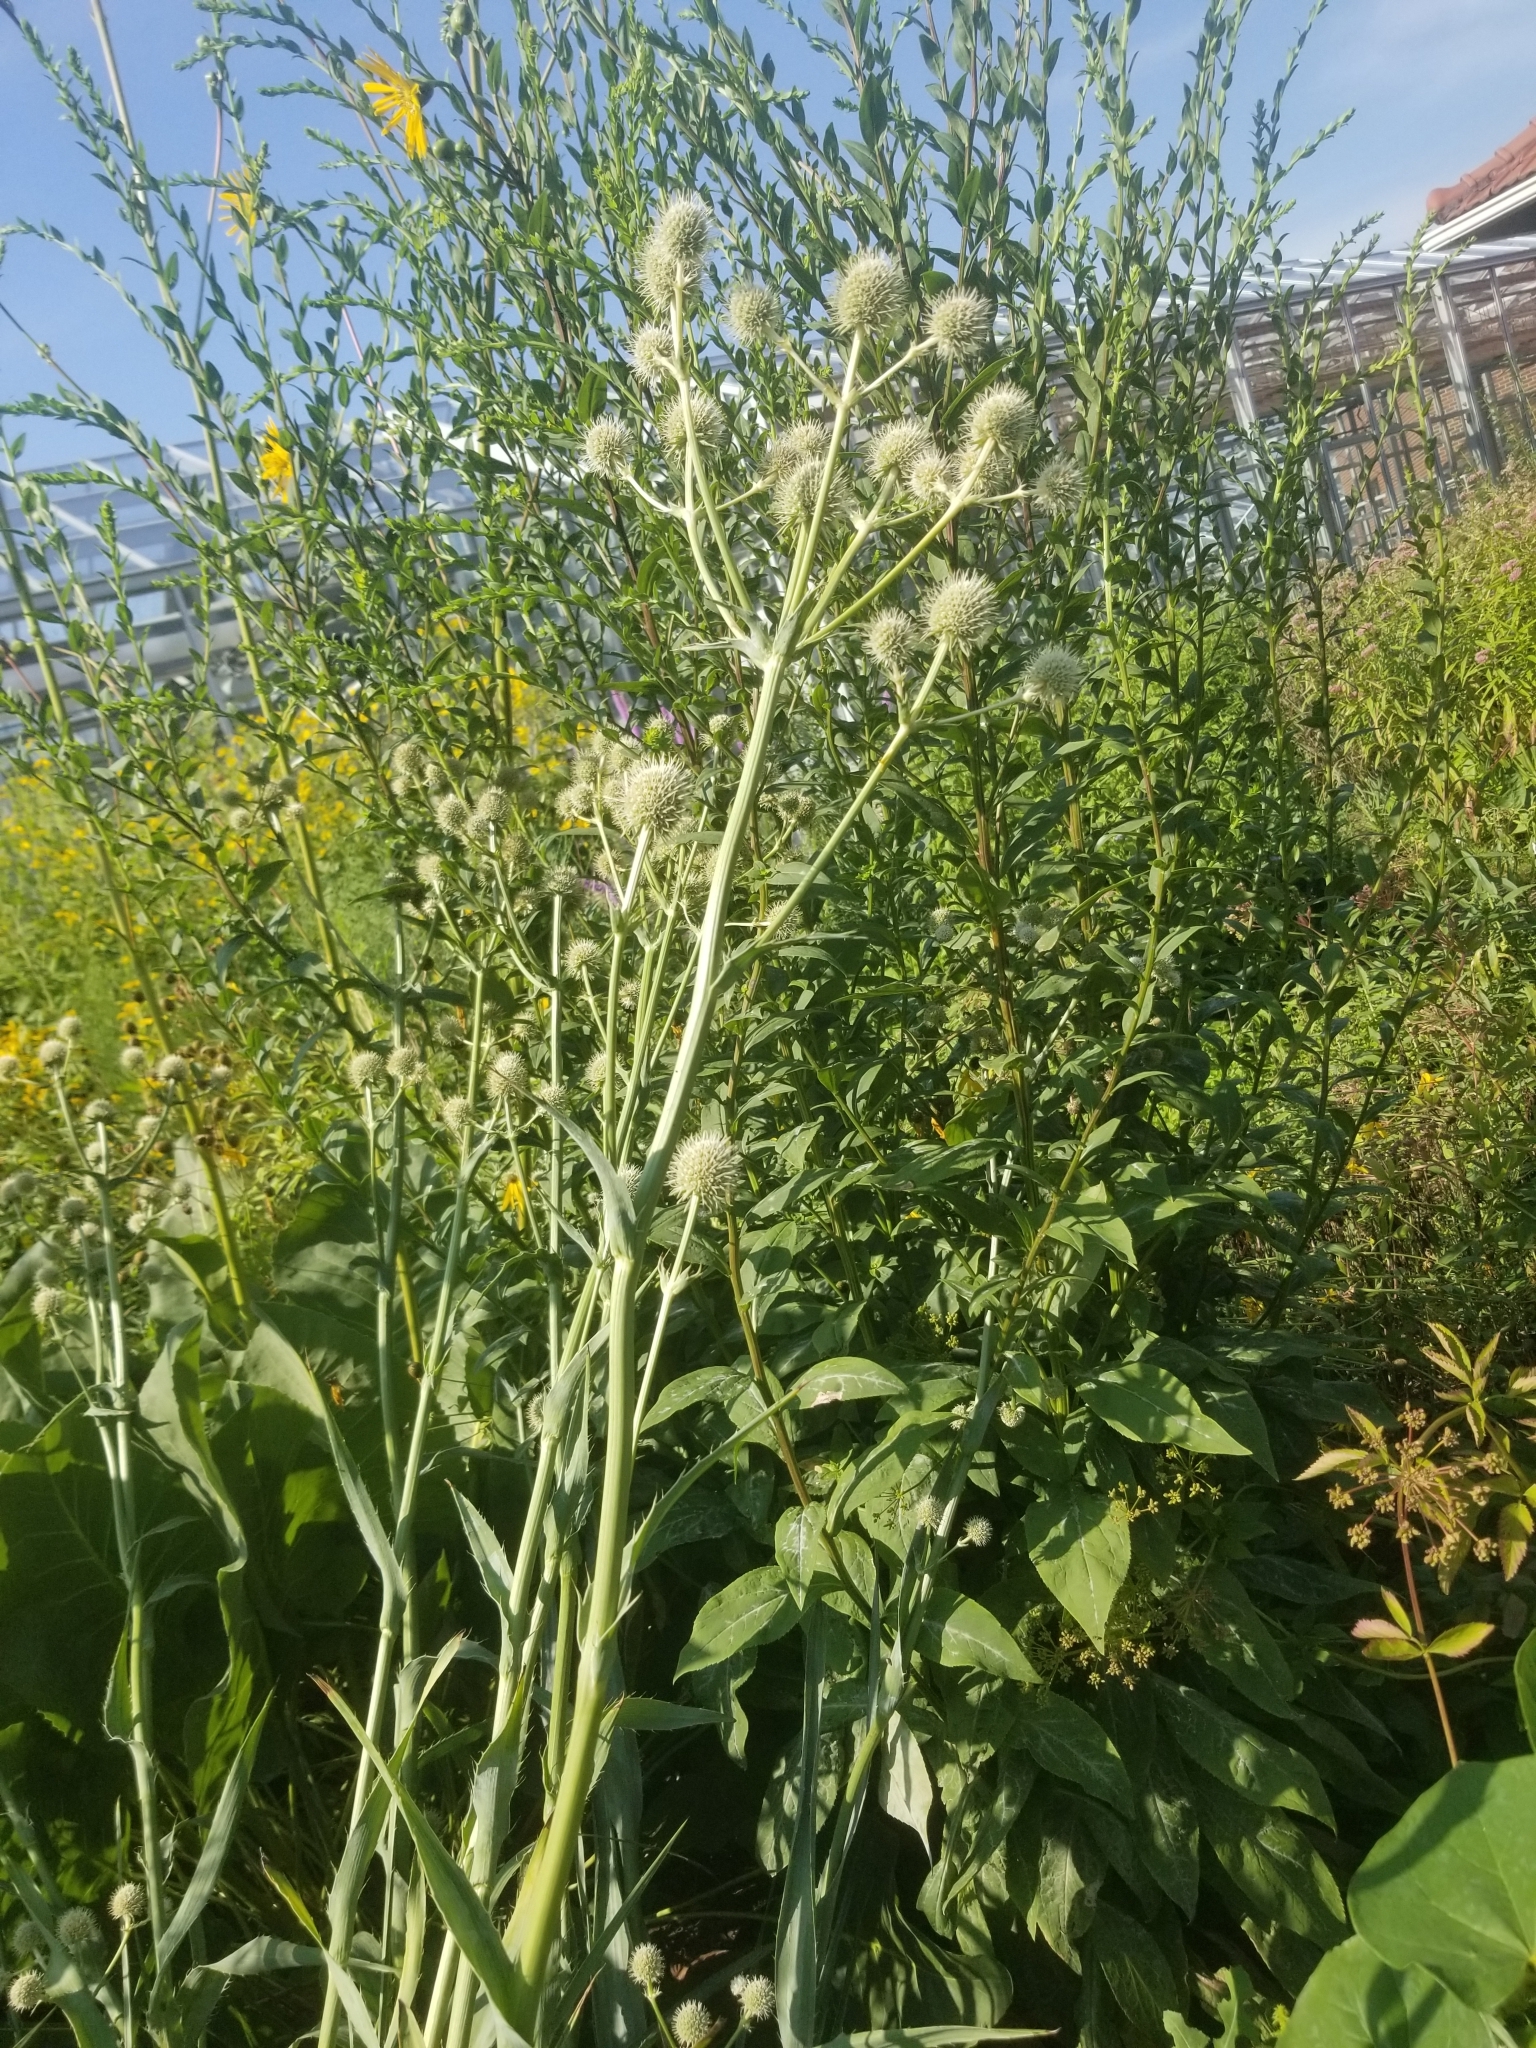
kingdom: Plantae
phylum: Tracheophyta
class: Magnoliopsida
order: Apiales
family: Apiaceae
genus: Eryngium
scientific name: Eryngium yuccifolium
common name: Button eryngo
